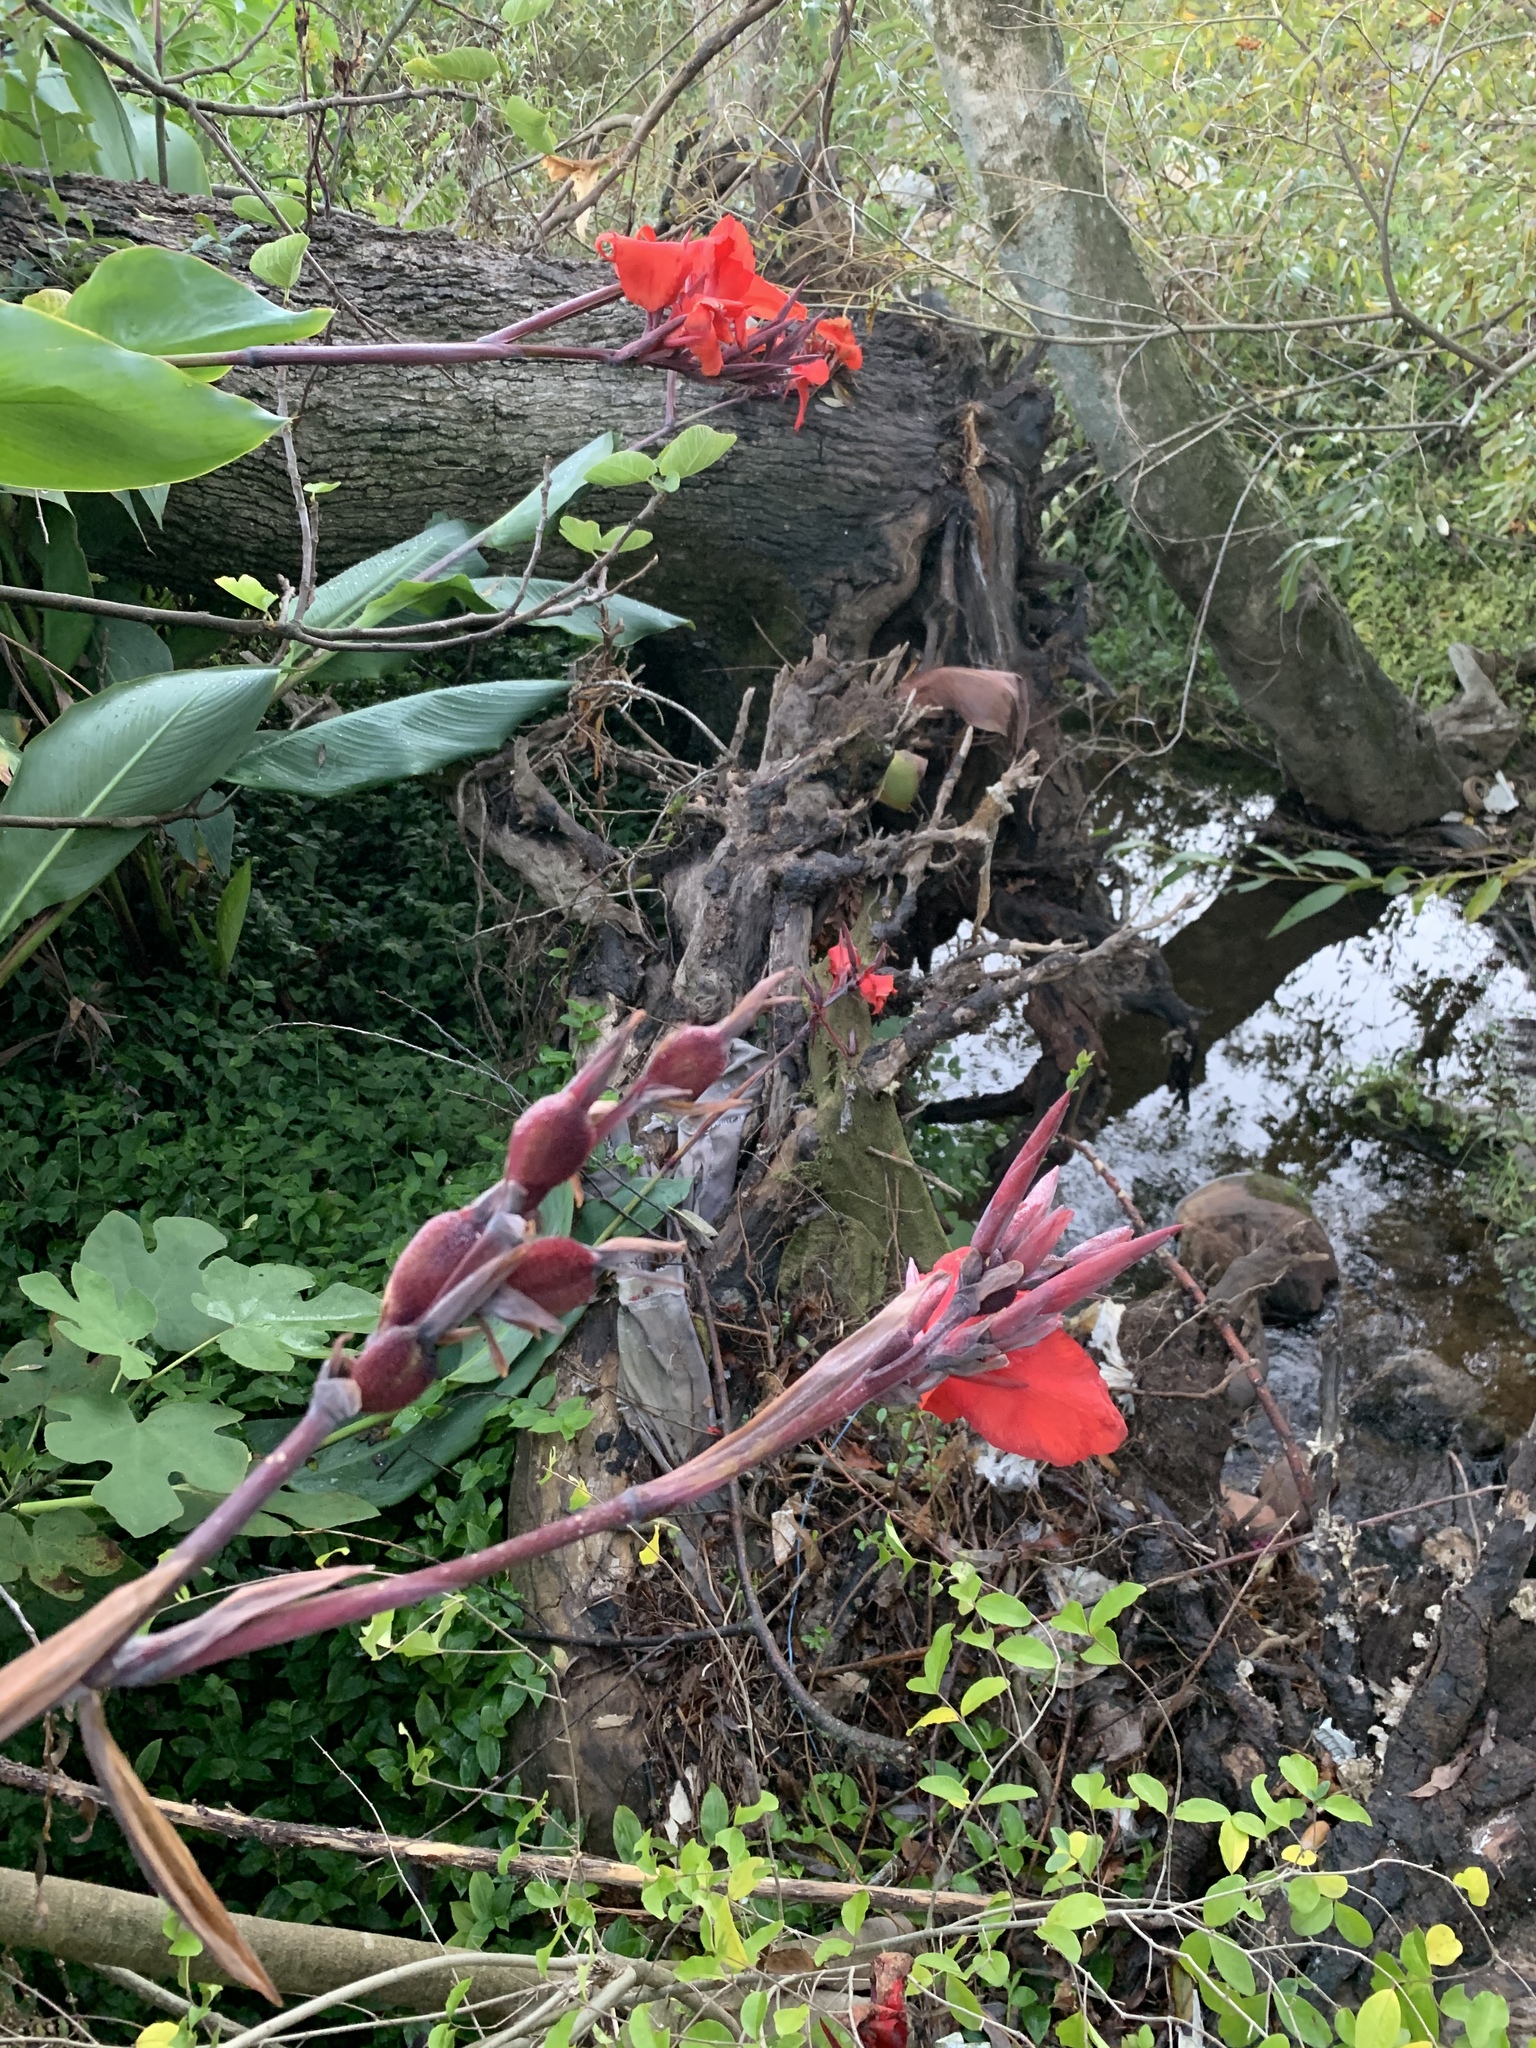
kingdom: Plantae
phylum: Tracheophyta
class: Liliopsida
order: Zingiberales
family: Cannaceae
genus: Canna
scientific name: Canna hybrida
